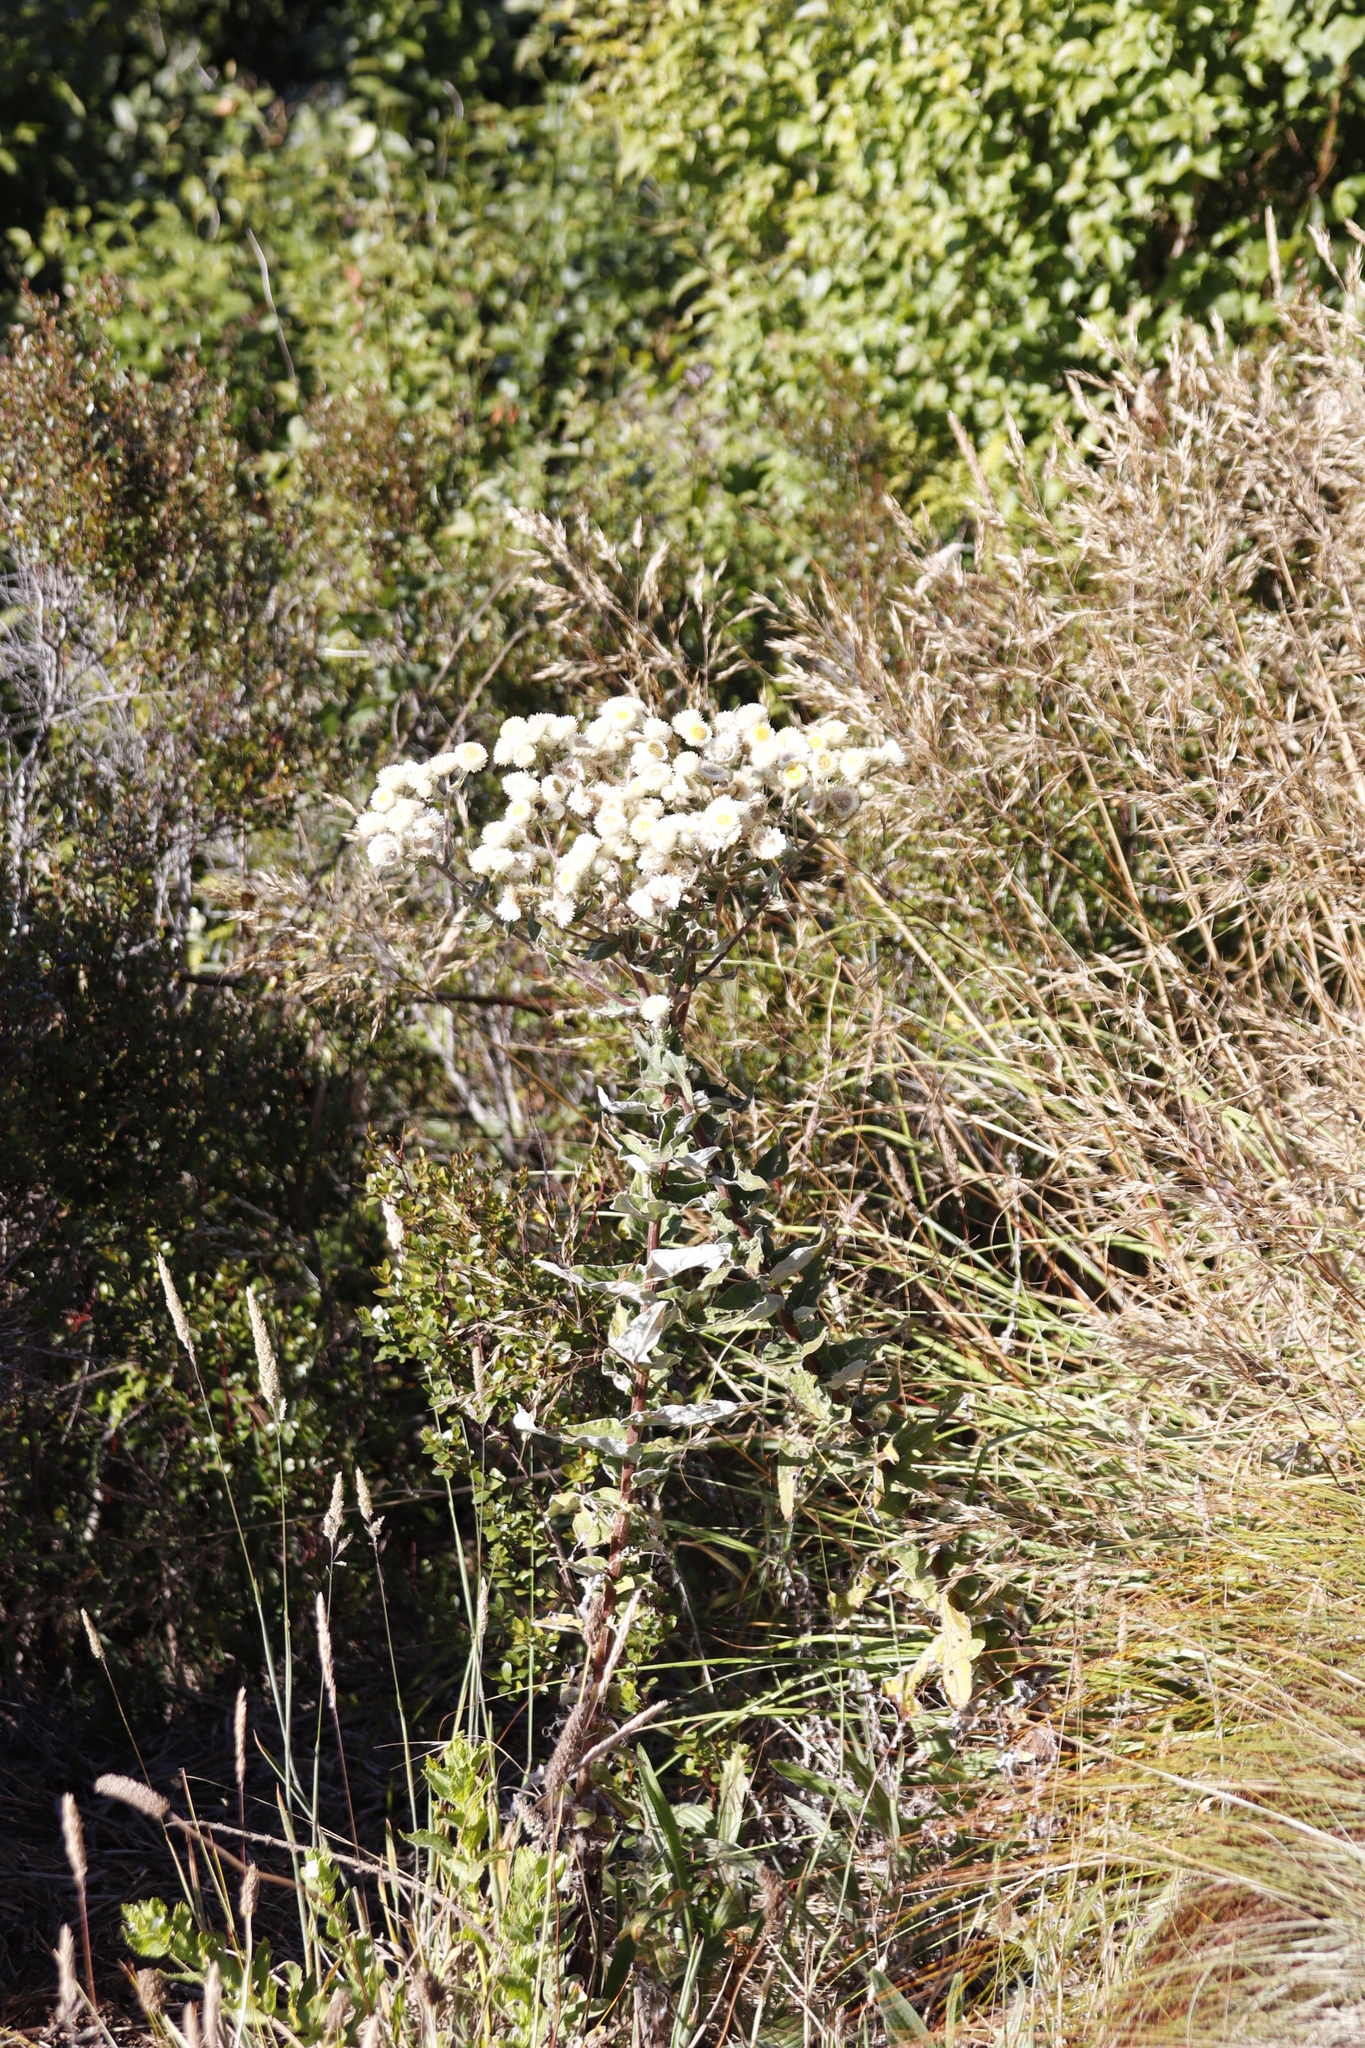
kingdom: Plantae
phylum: Tracheophyta
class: Magnoliopsida
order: Asterales
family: Asteraceae
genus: Helichrysum
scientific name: Helichrysum foetidum
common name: Stinking everlasting
